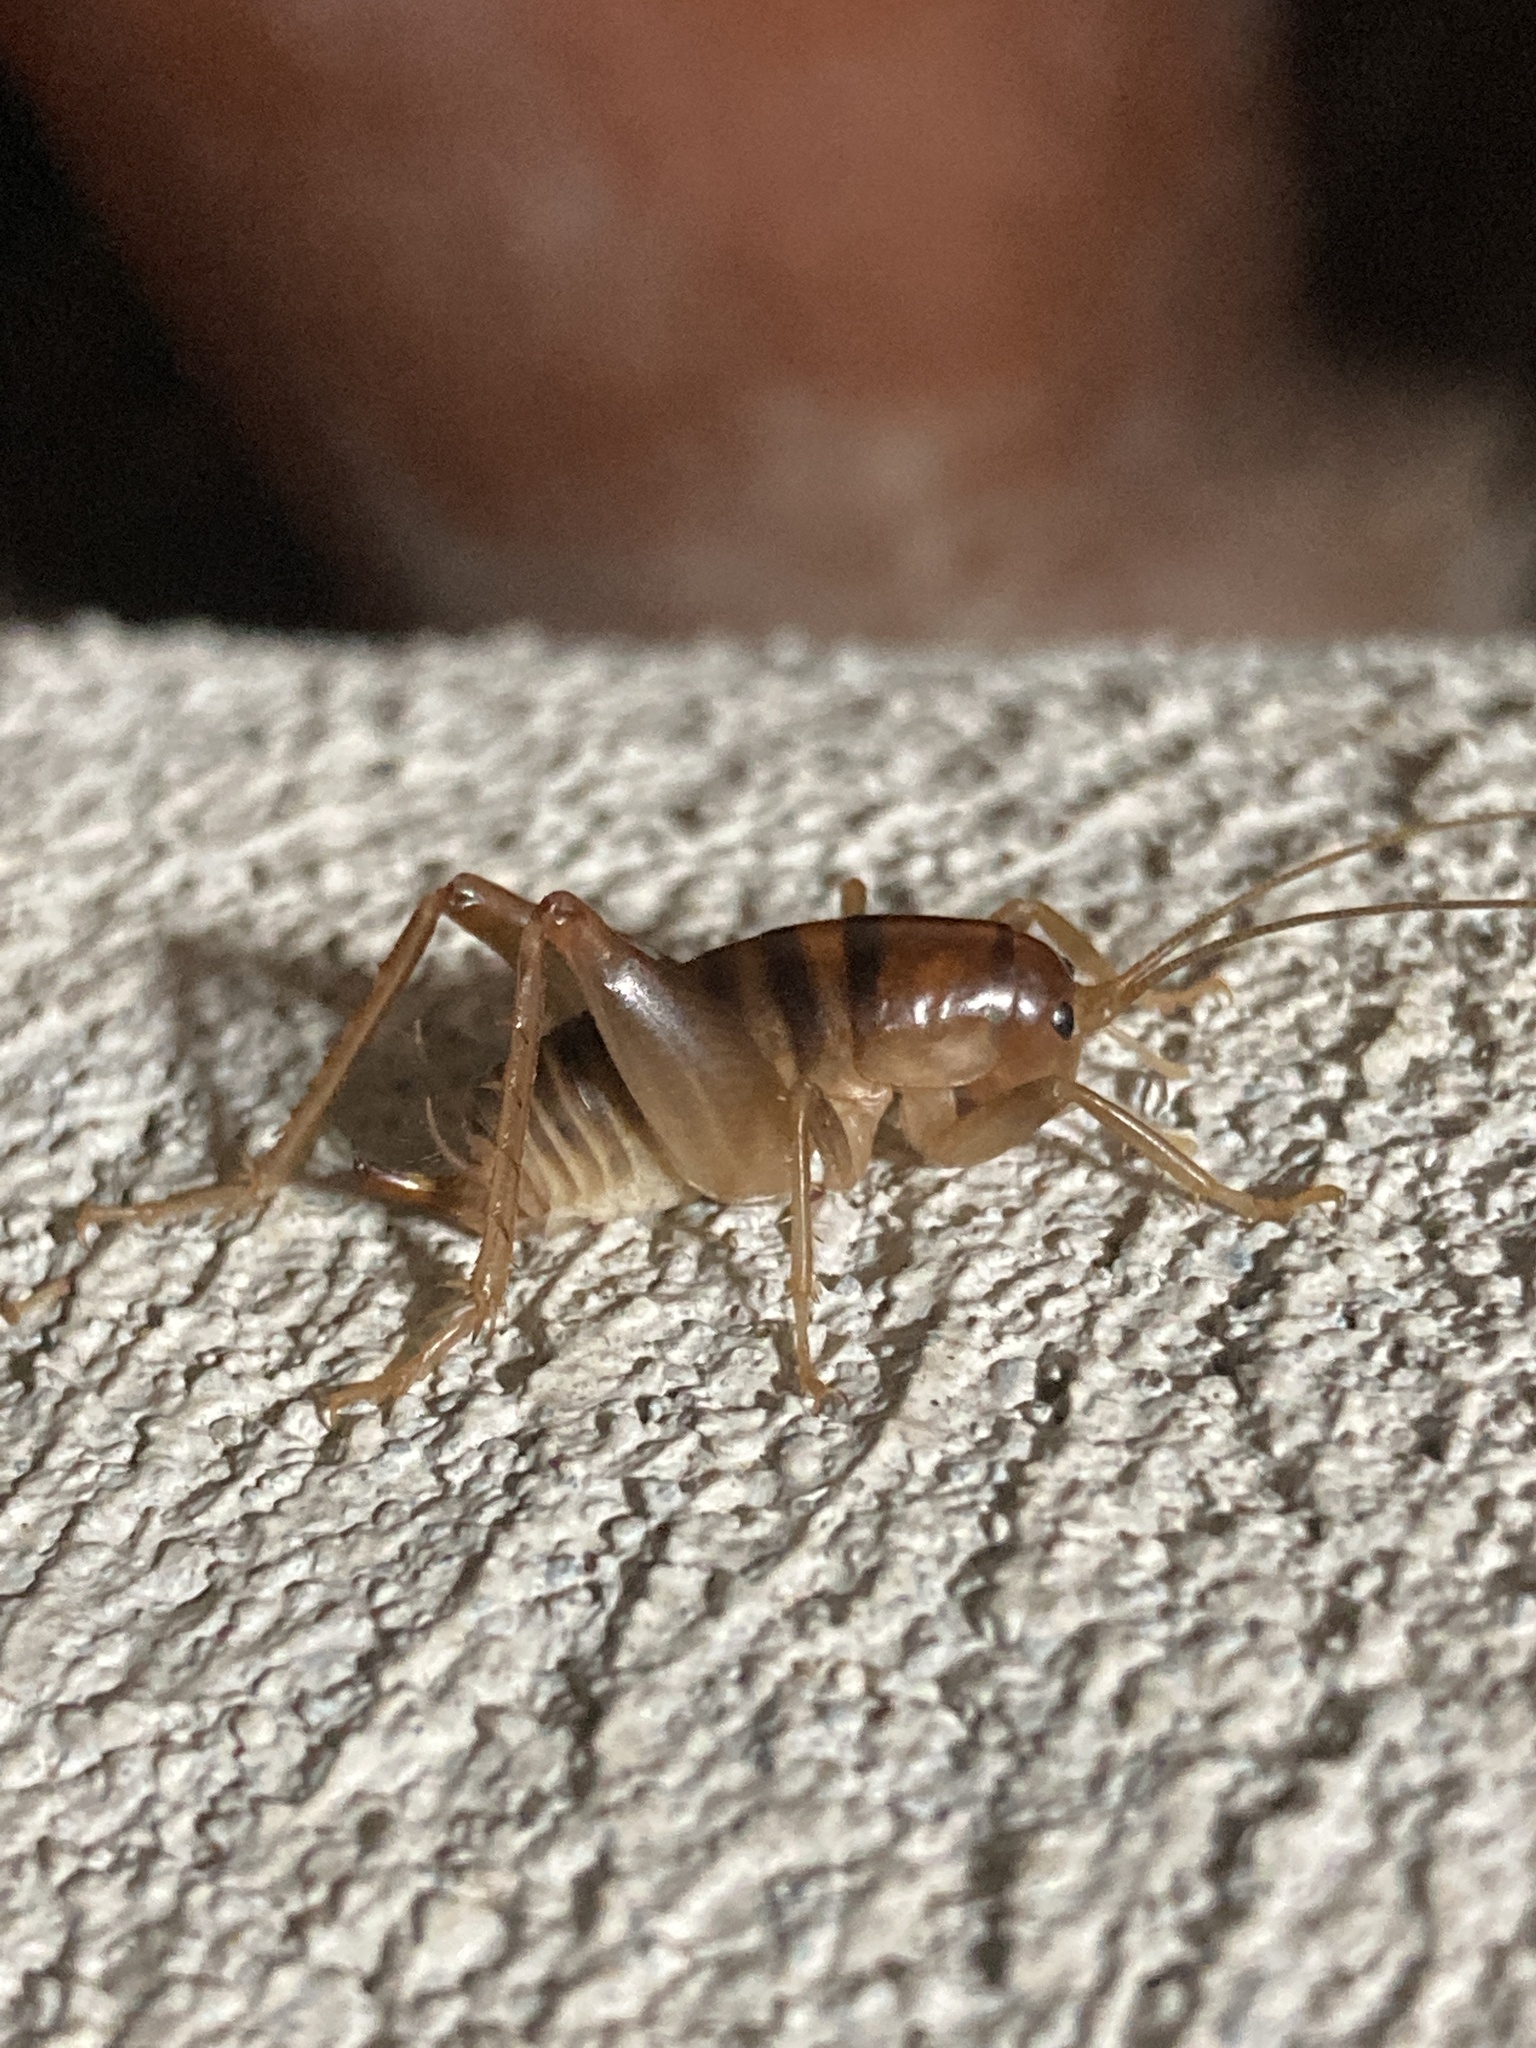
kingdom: Animalia
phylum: Arthropoda
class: Insecta
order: Orthoptera
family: Rhaphidophoridae
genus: Ceuthophilus
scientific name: Ceuthophilus californianus
